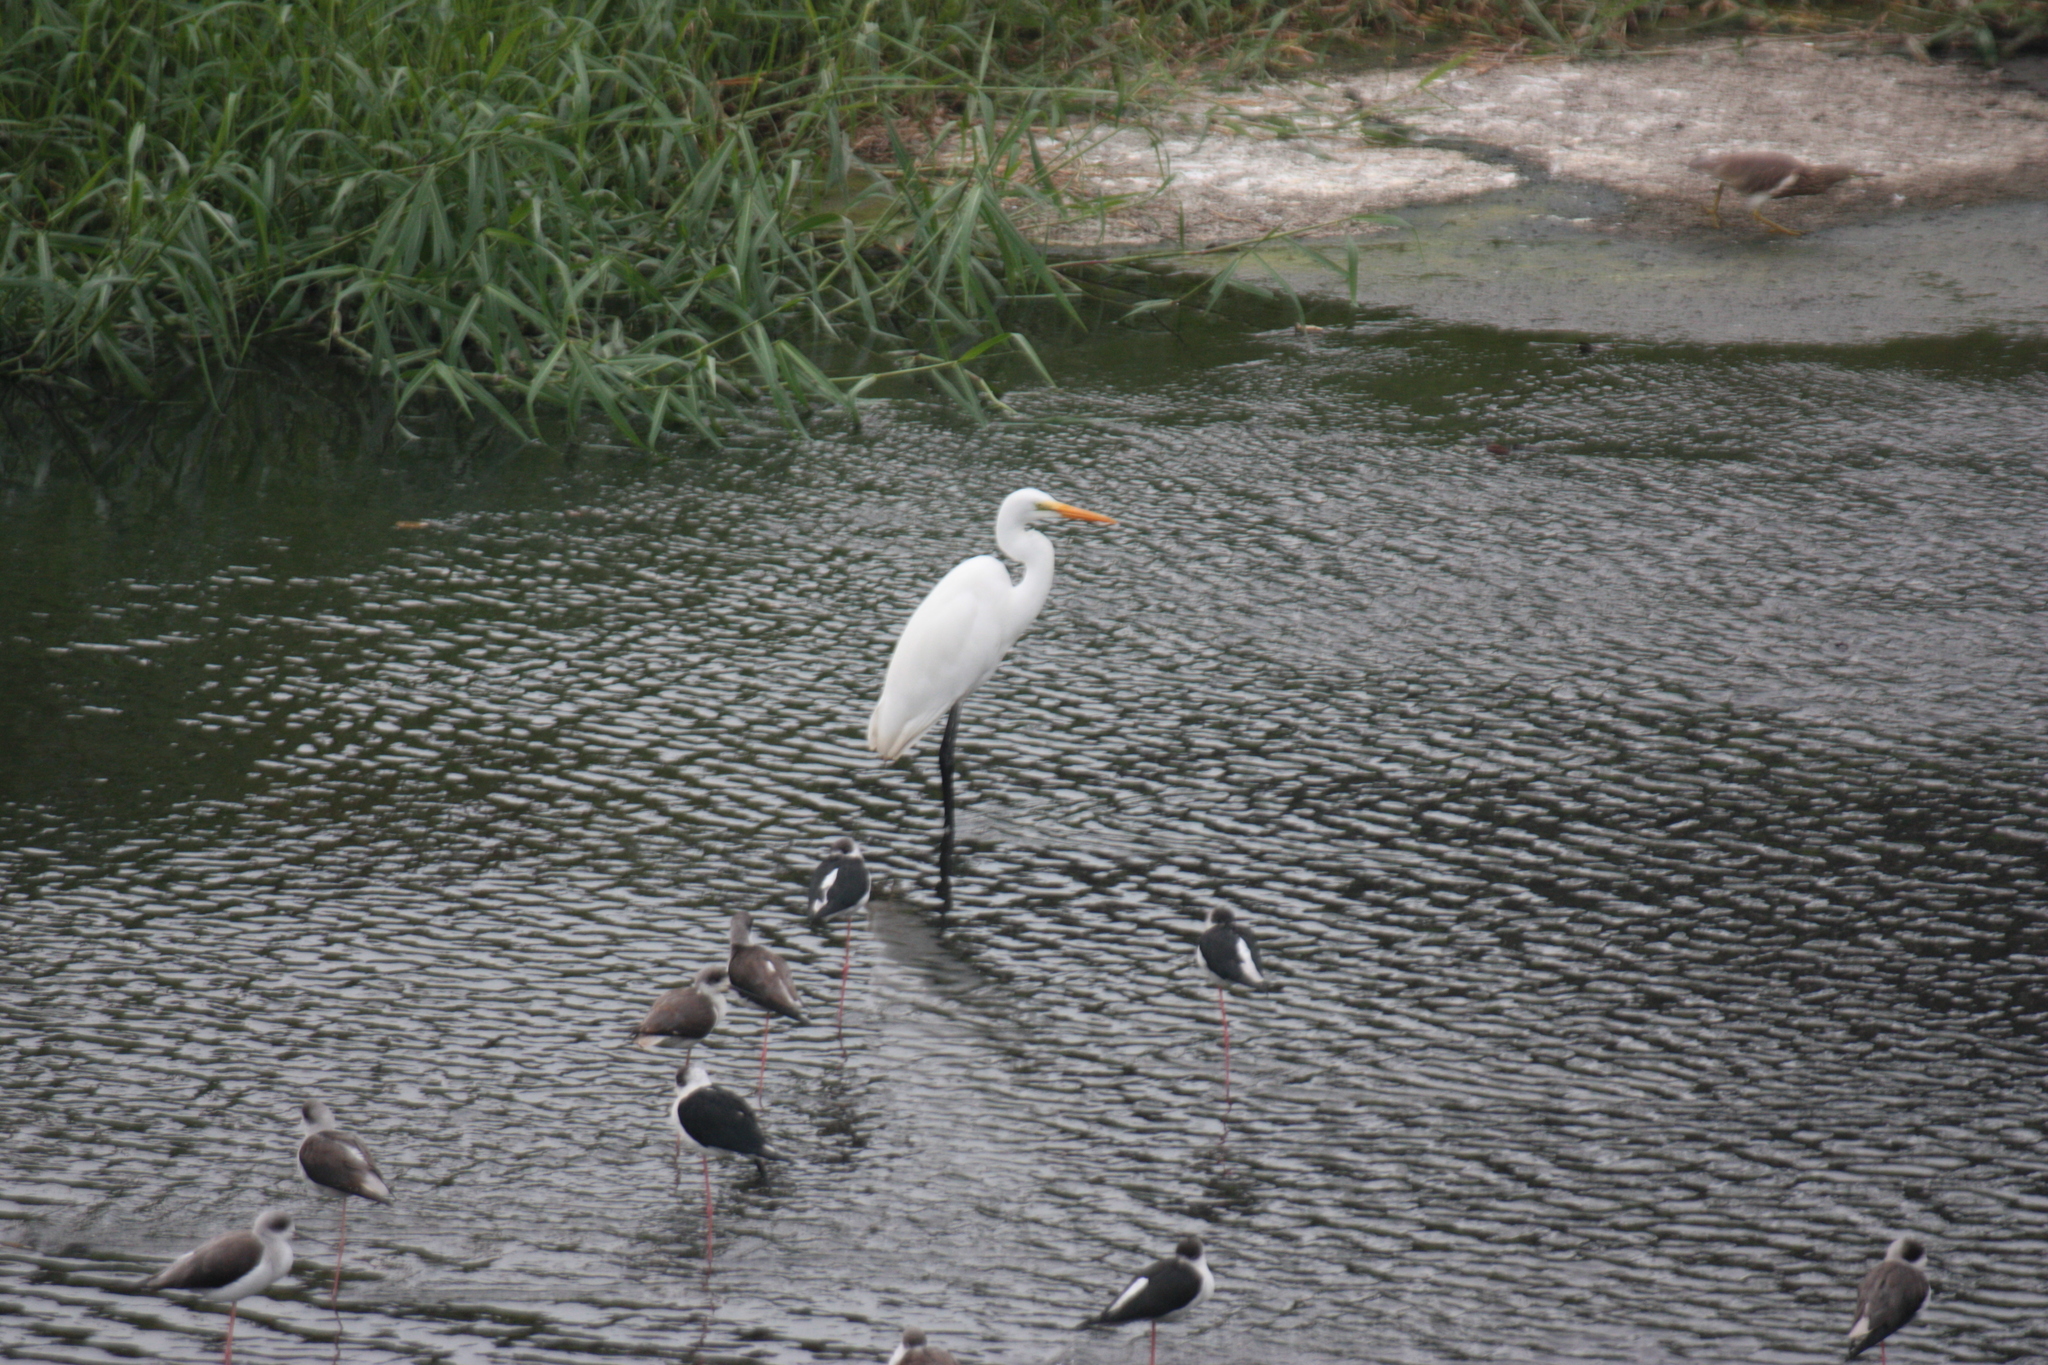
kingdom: Animalia
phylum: Chordata
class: Aves
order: Pelecaniformes
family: Ardeidae
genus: Ardea
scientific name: Ardea alba
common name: Great egret
